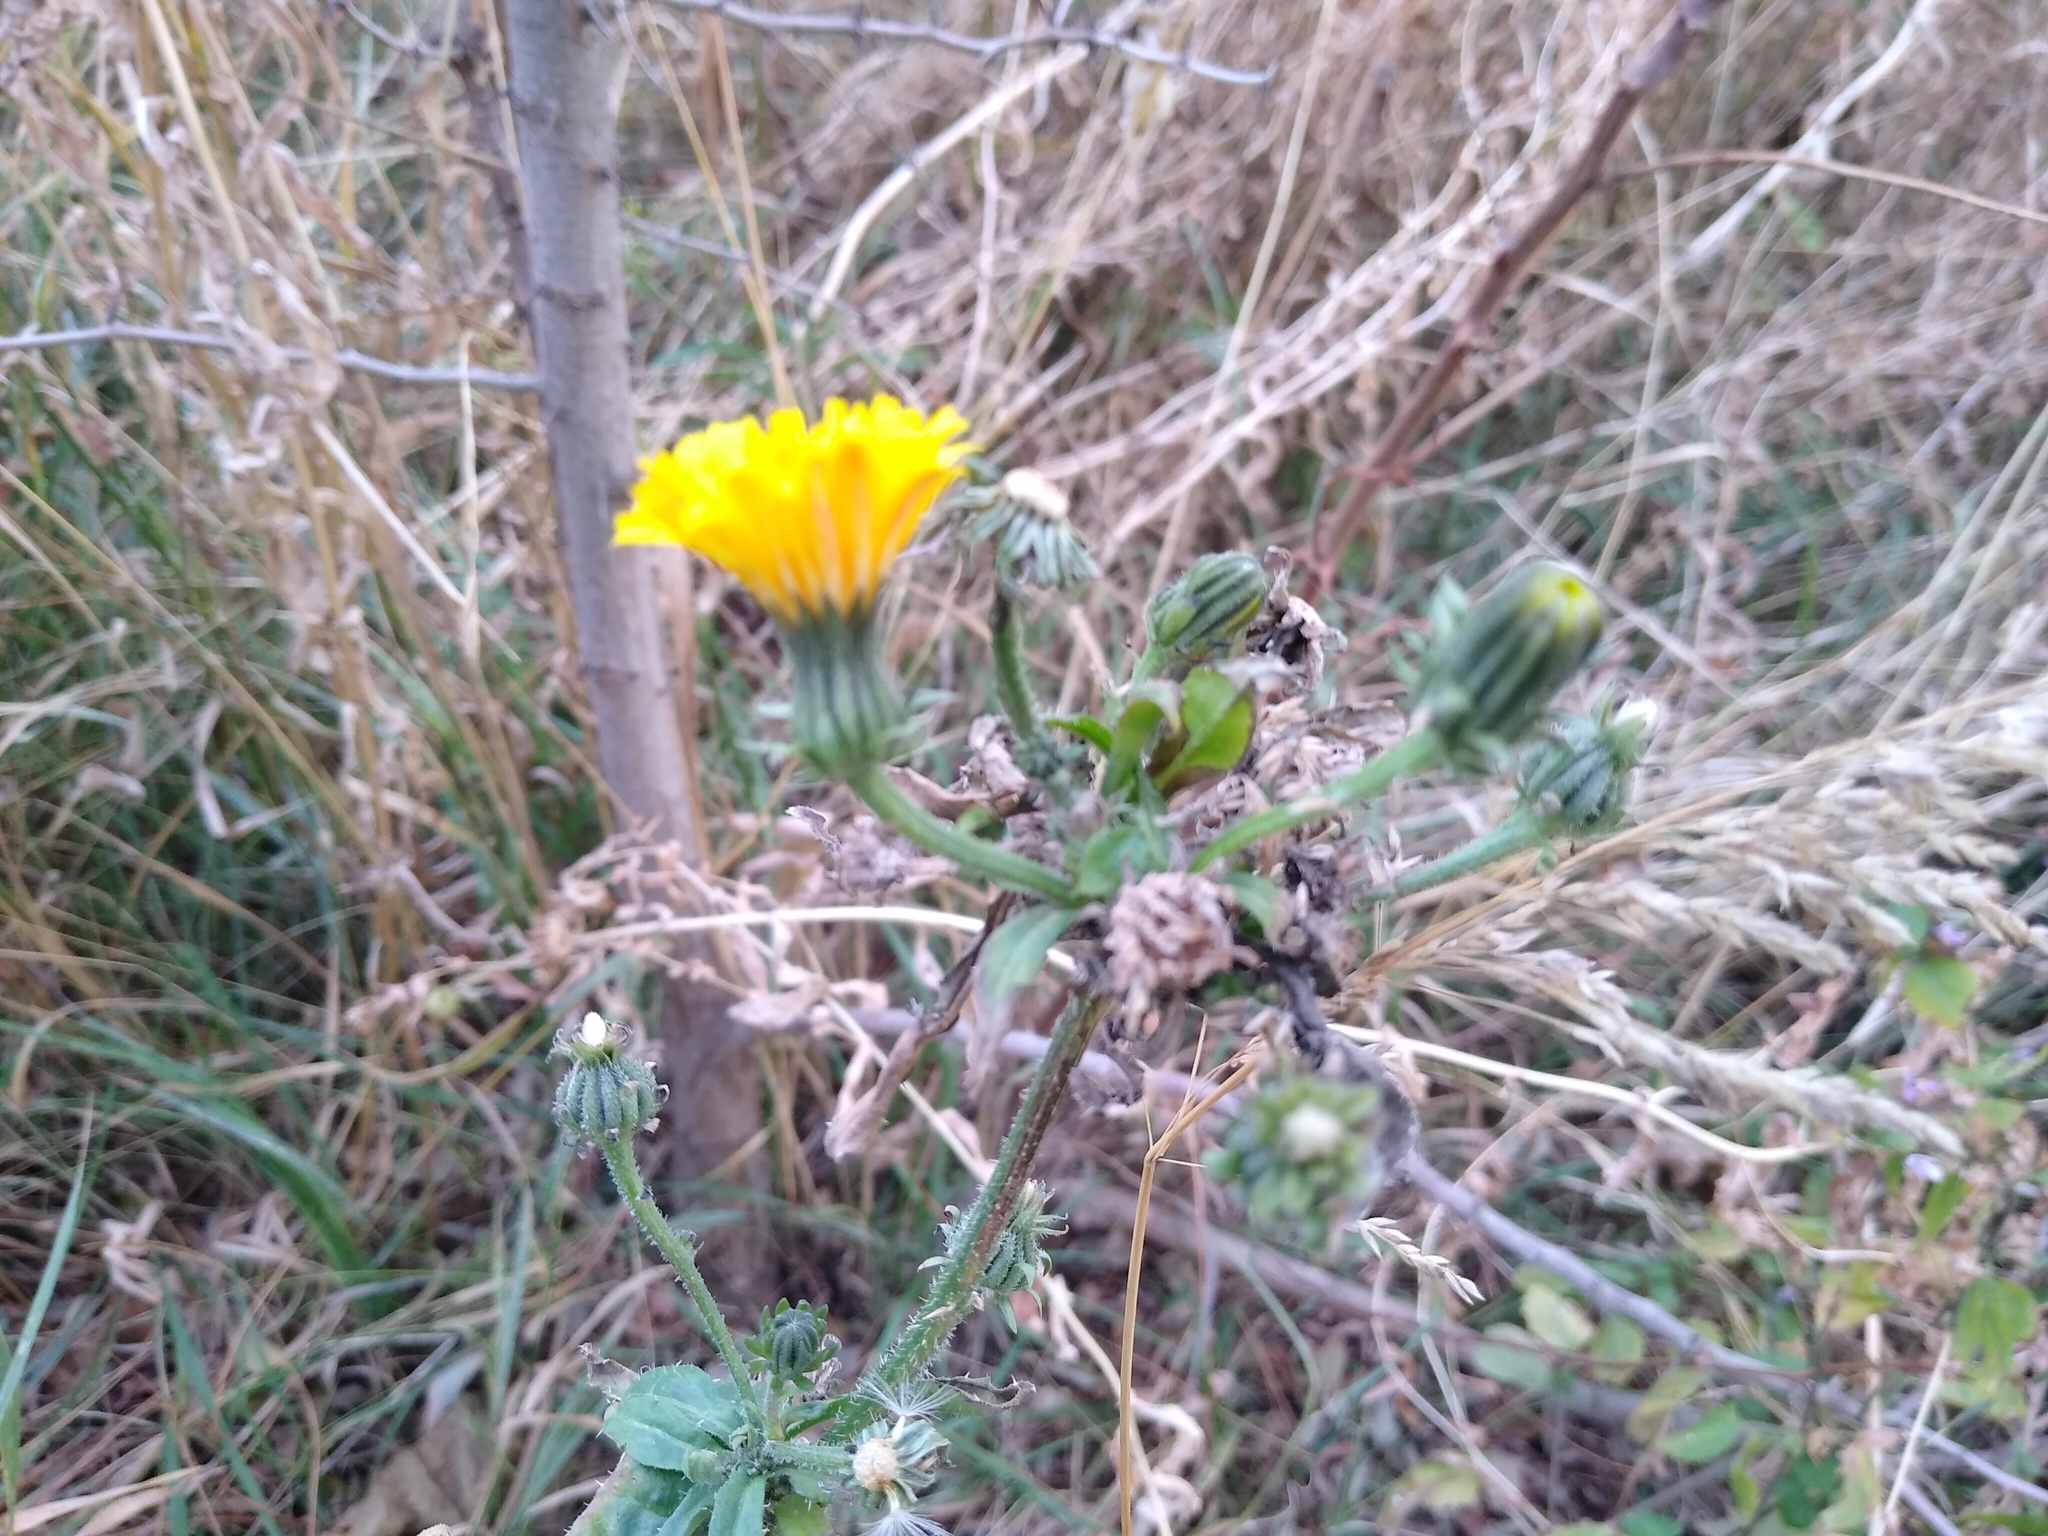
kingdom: Plantae
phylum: Tracheophyta
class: Magnoliopsida
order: Asterales
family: Asteraceae
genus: Picris
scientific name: Picris hieracioides
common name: Hawkweed oxtongue
